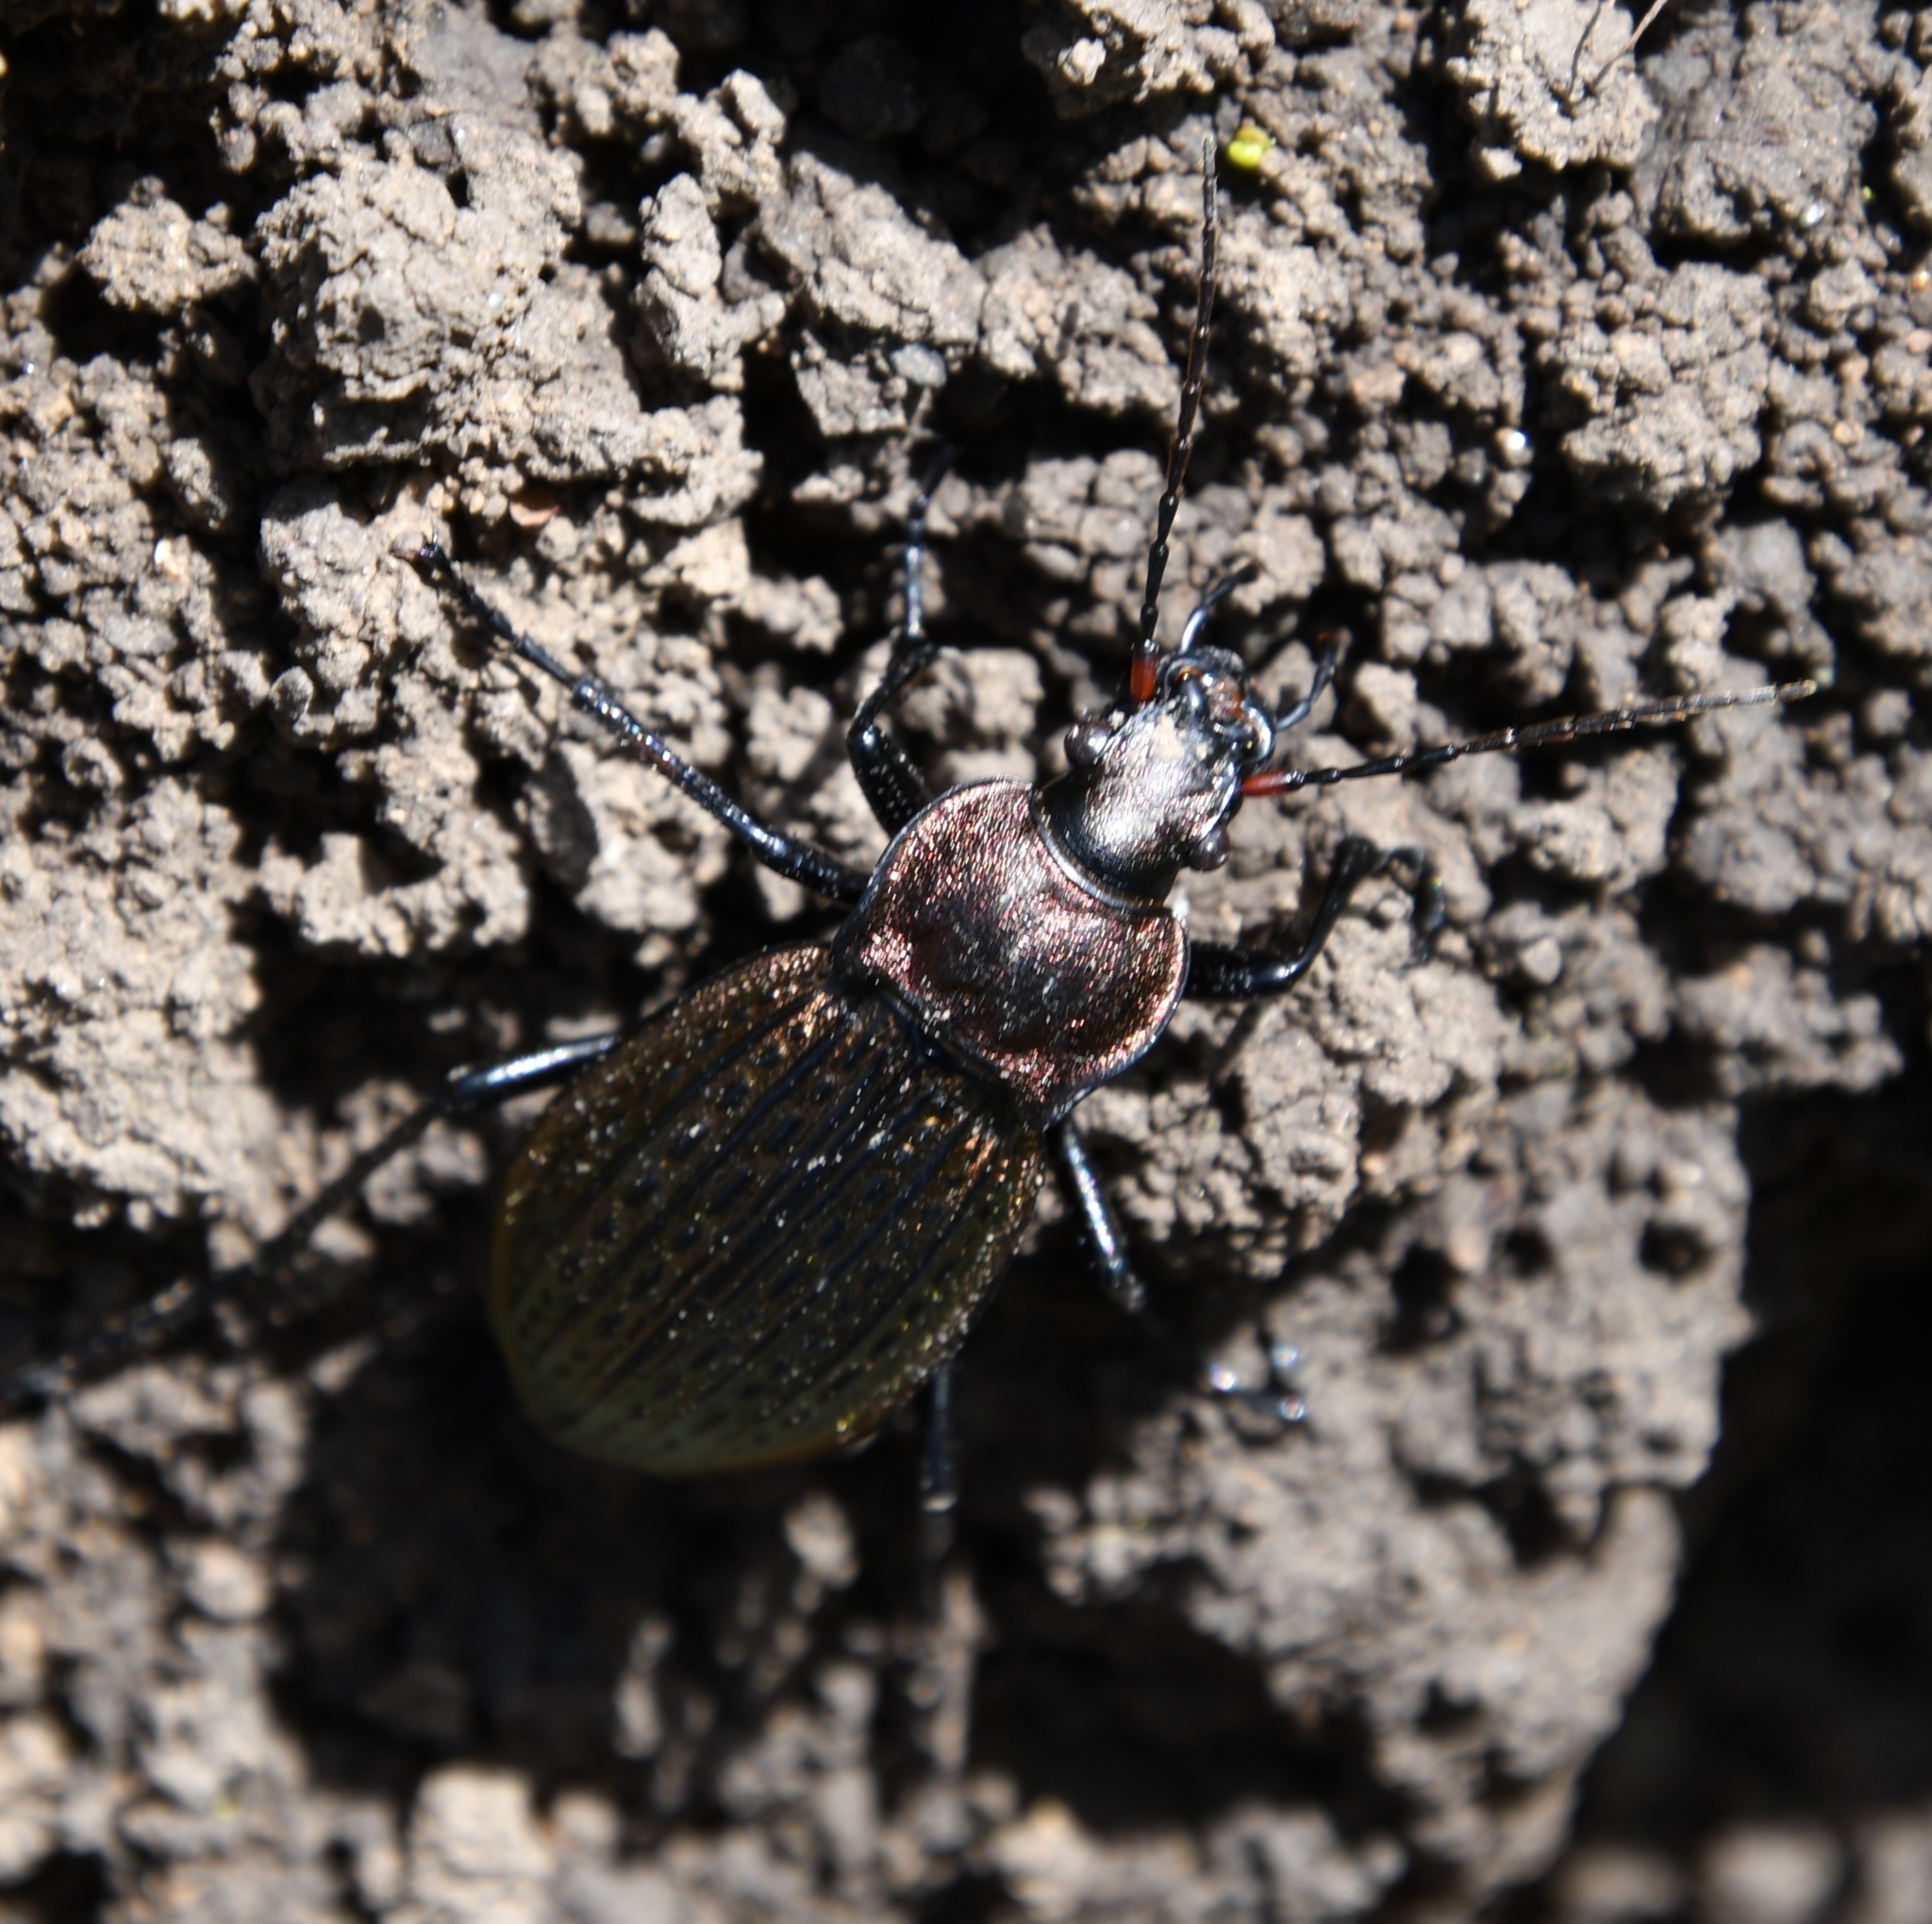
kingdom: Animalia
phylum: Arthropoda
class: Insecta
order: Coleoptera
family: Carabidae
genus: Carabus
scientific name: Carabus cancellatus
